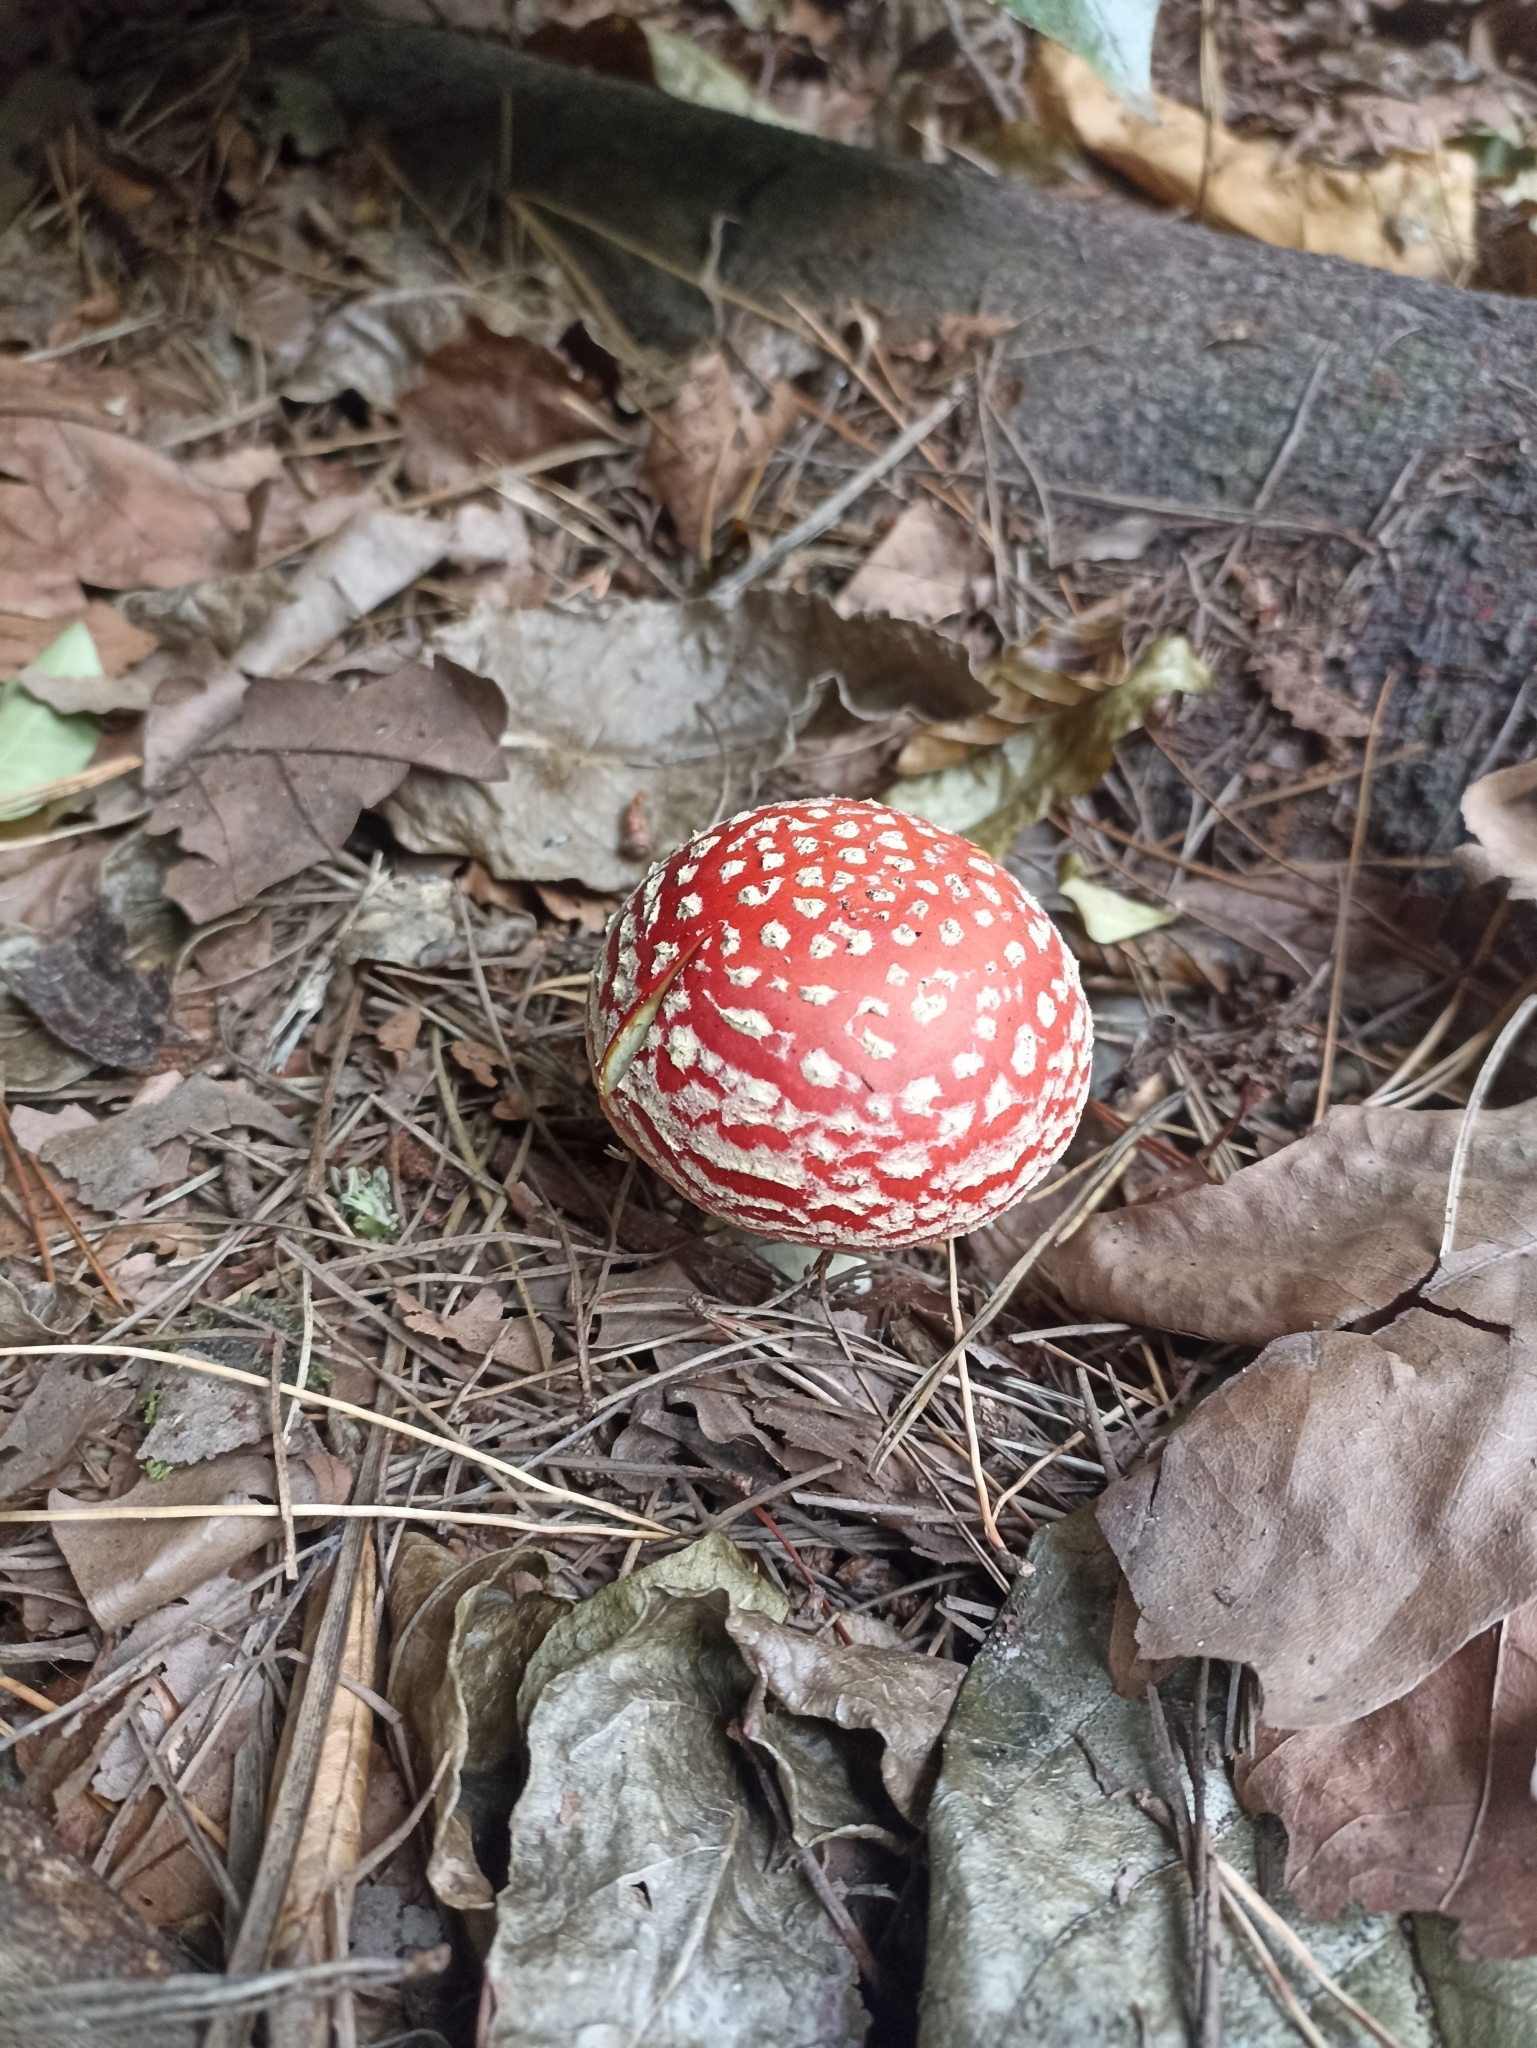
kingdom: Fungi
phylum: Basidiomycota
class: Agaricomycetes
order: Agaricales
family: Amanitaceae
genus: Amanita
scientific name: Amanita muscaria
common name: Fly agaric
